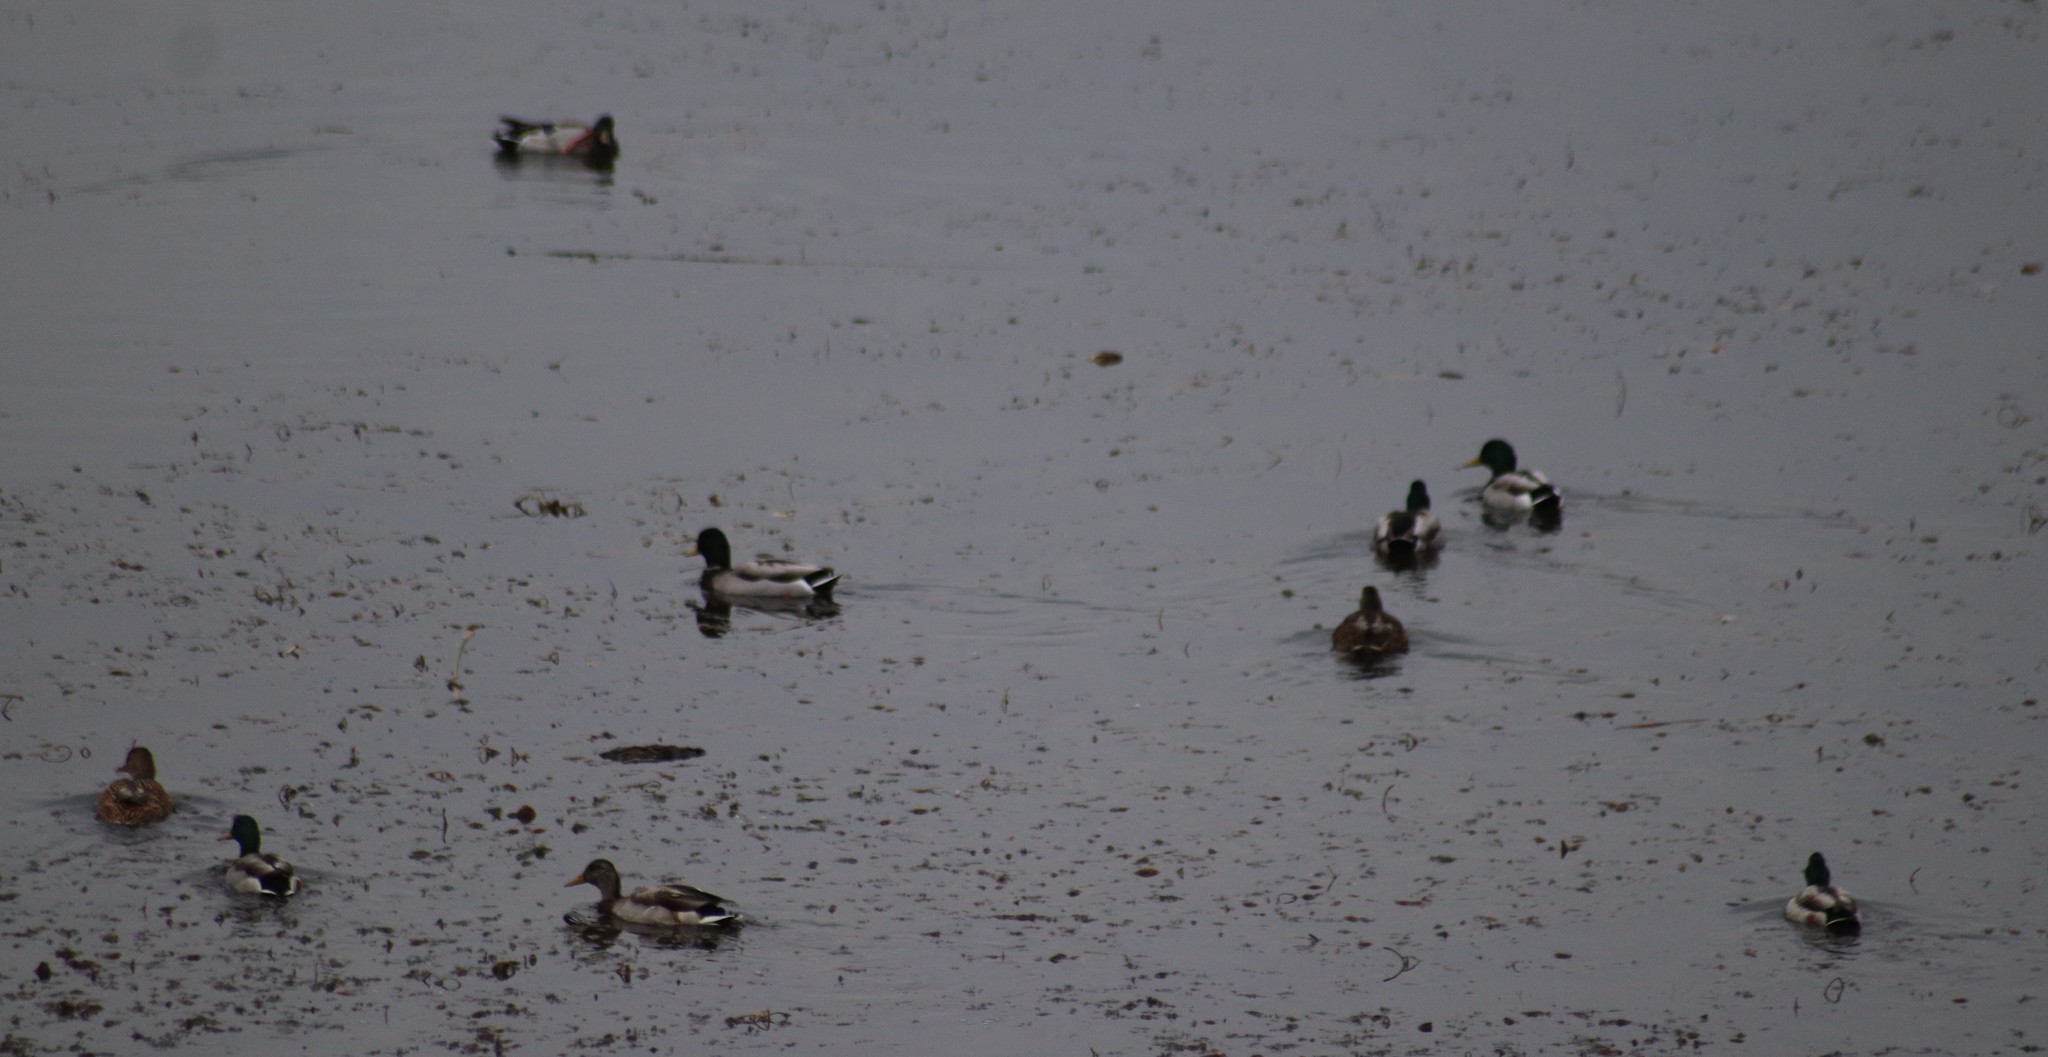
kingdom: Animalia
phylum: Chordata
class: Aves
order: Anseriformes
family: Anatidae
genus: Anas
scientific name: Anas platyrhynchos
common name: Mallard
